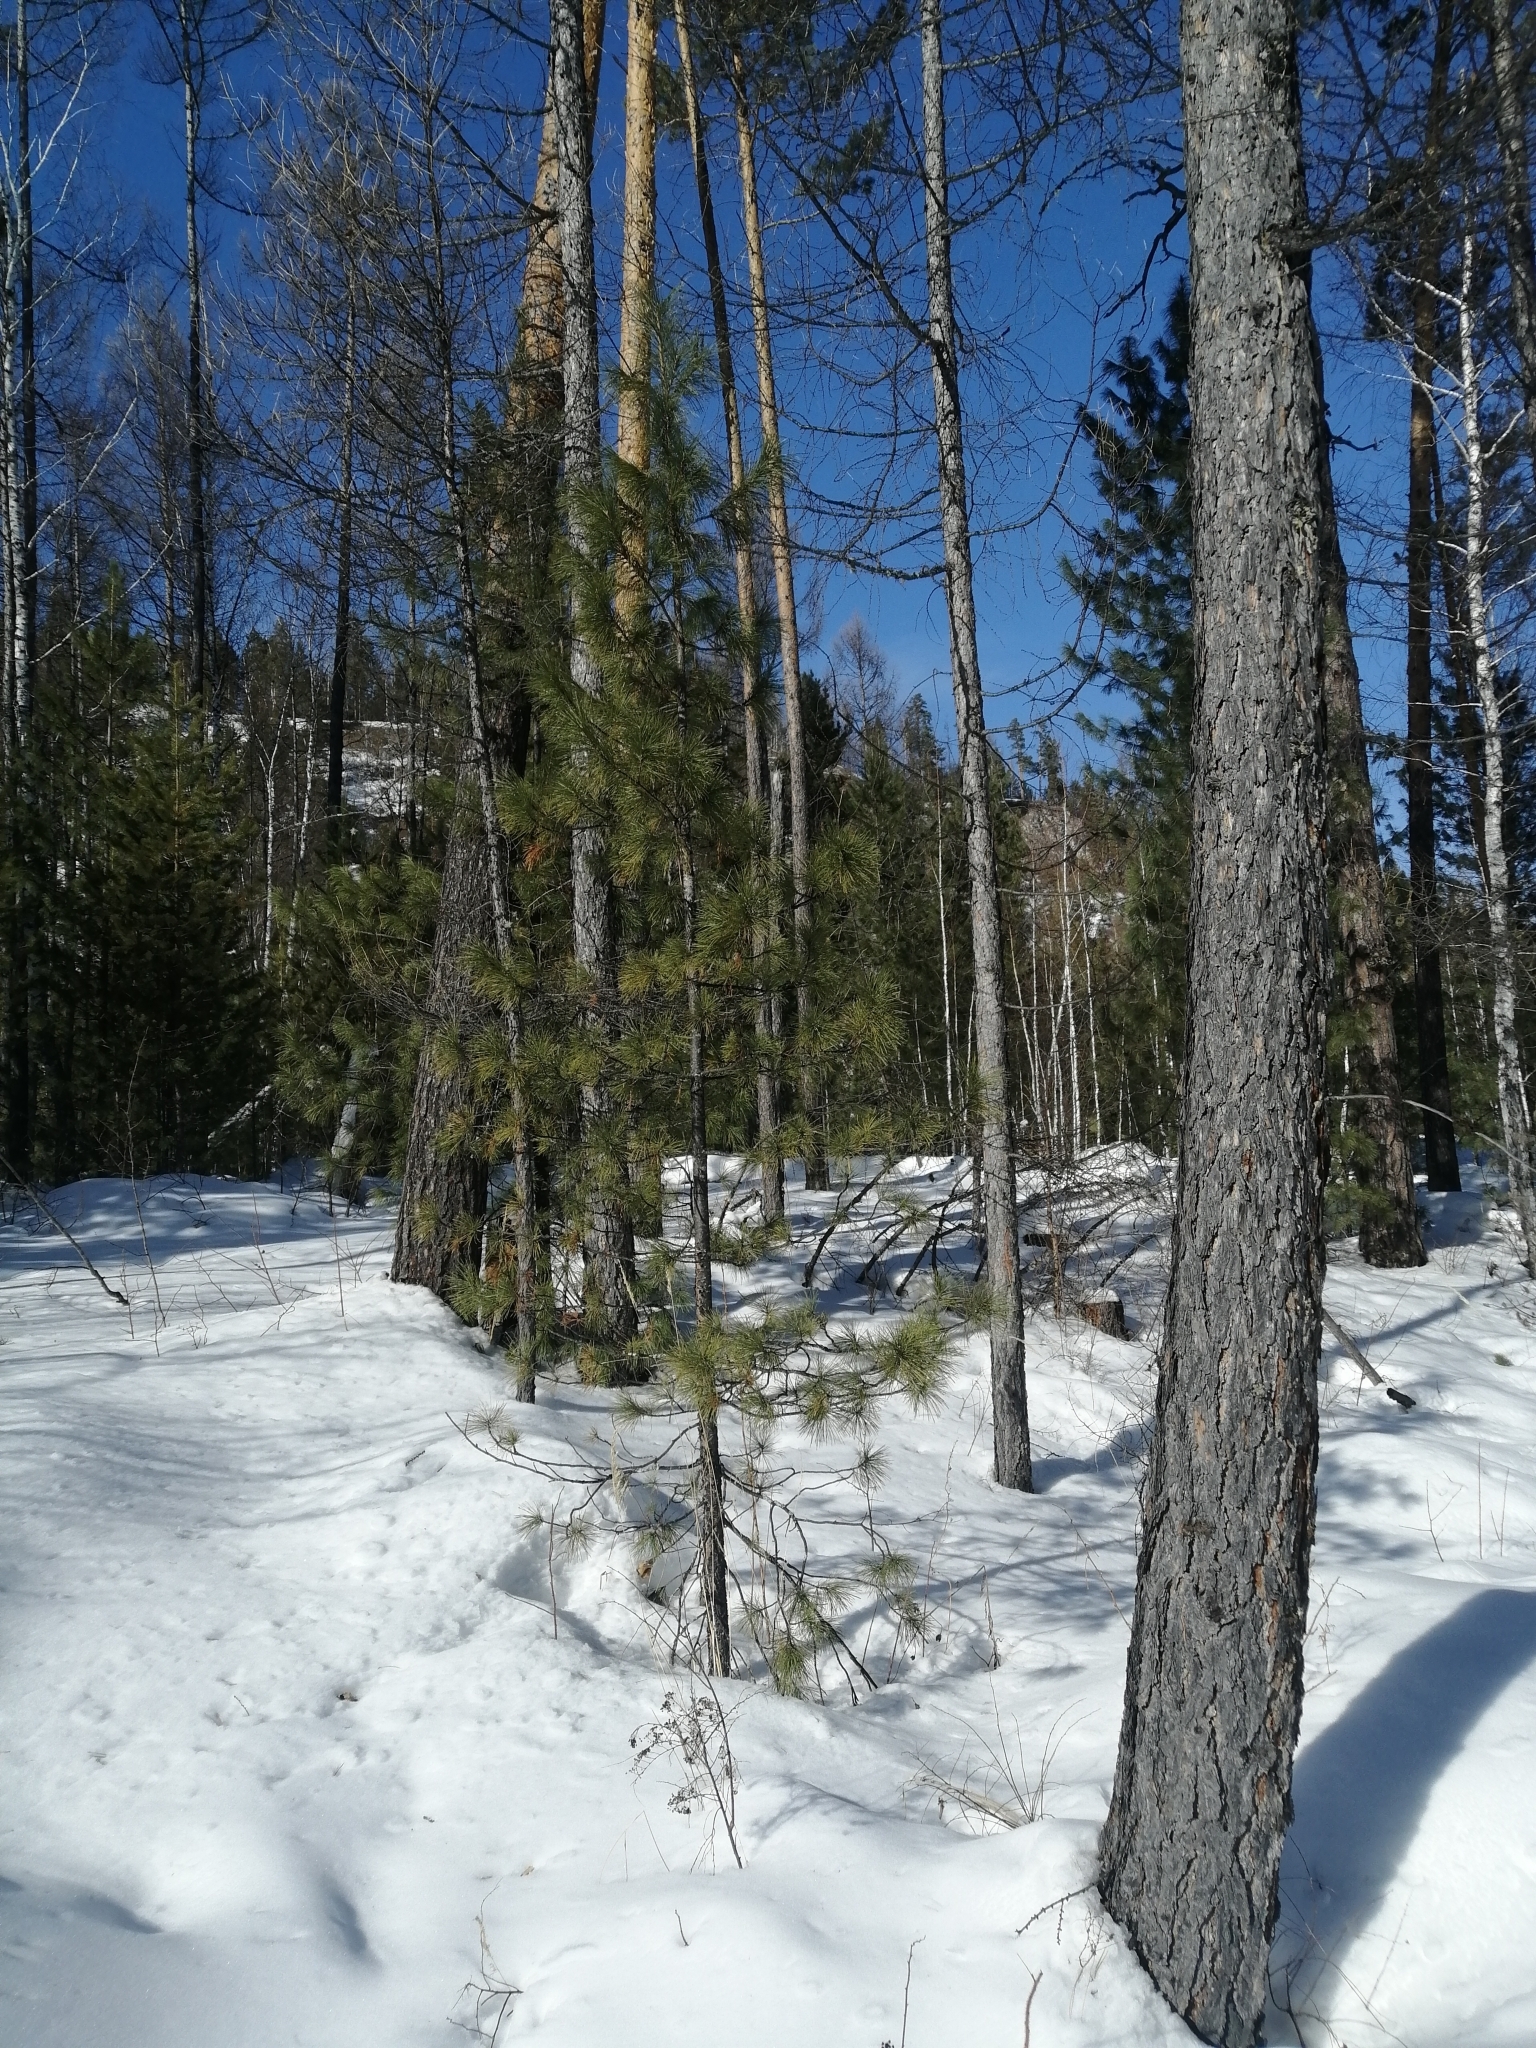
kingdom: Plantae
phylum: Tracheophyta
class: Pinopsida
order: Pinales
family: Pinaceae
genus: Pinus
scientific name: Pinus sibirica
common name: Siberian pine
